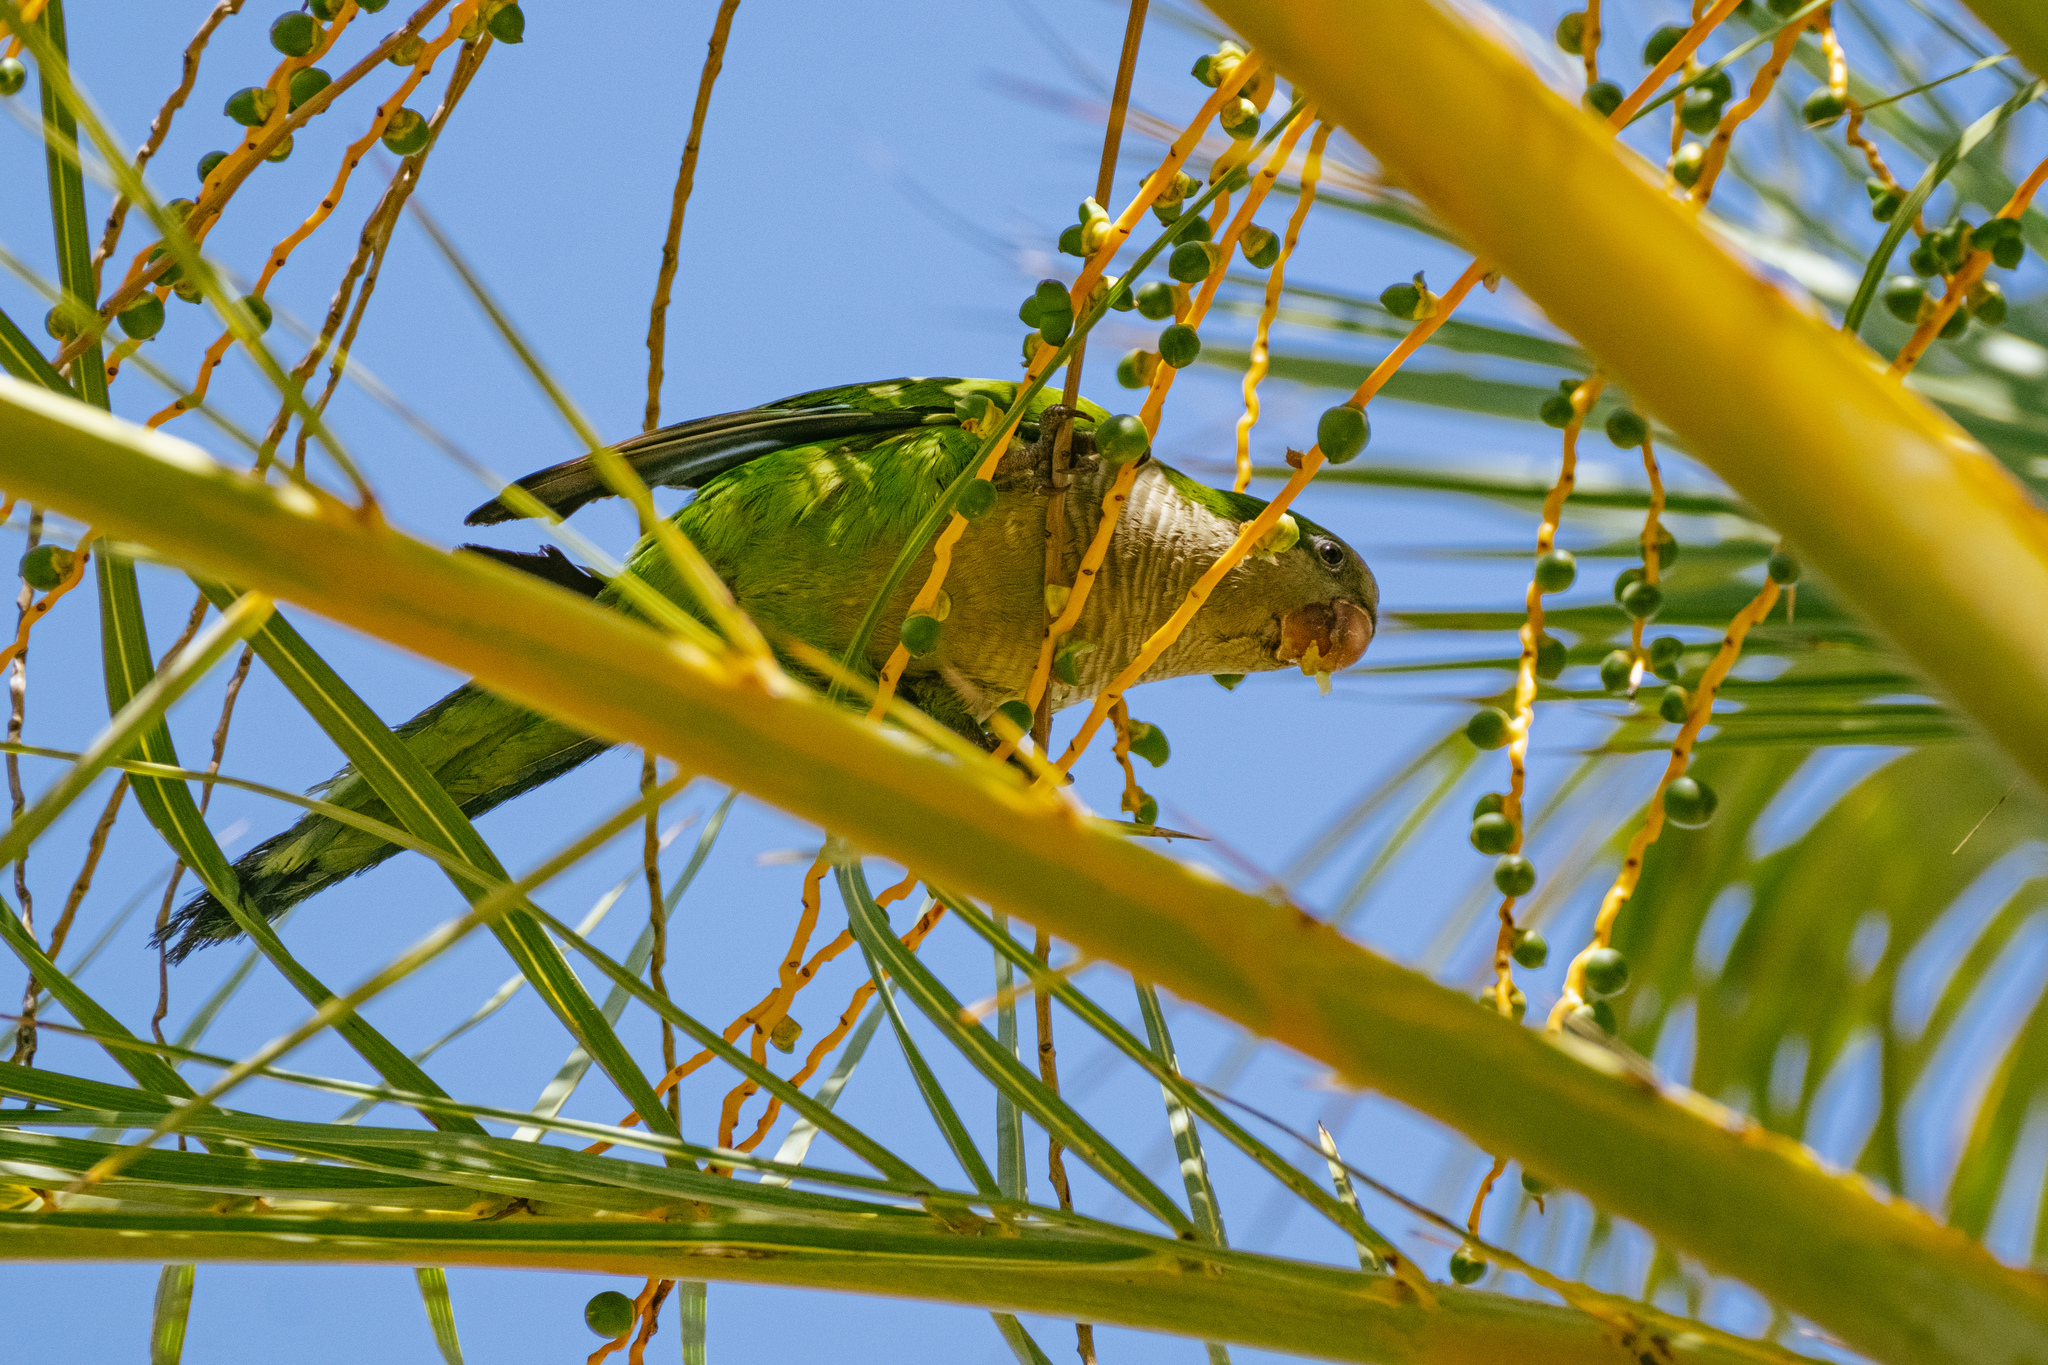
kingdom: Animalia
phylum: Chordata
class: Aves
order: Psittaciformes
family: Psittacidae
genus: Myiopsitta
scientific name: Myiopsitta monachus
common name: Monk parakeet
